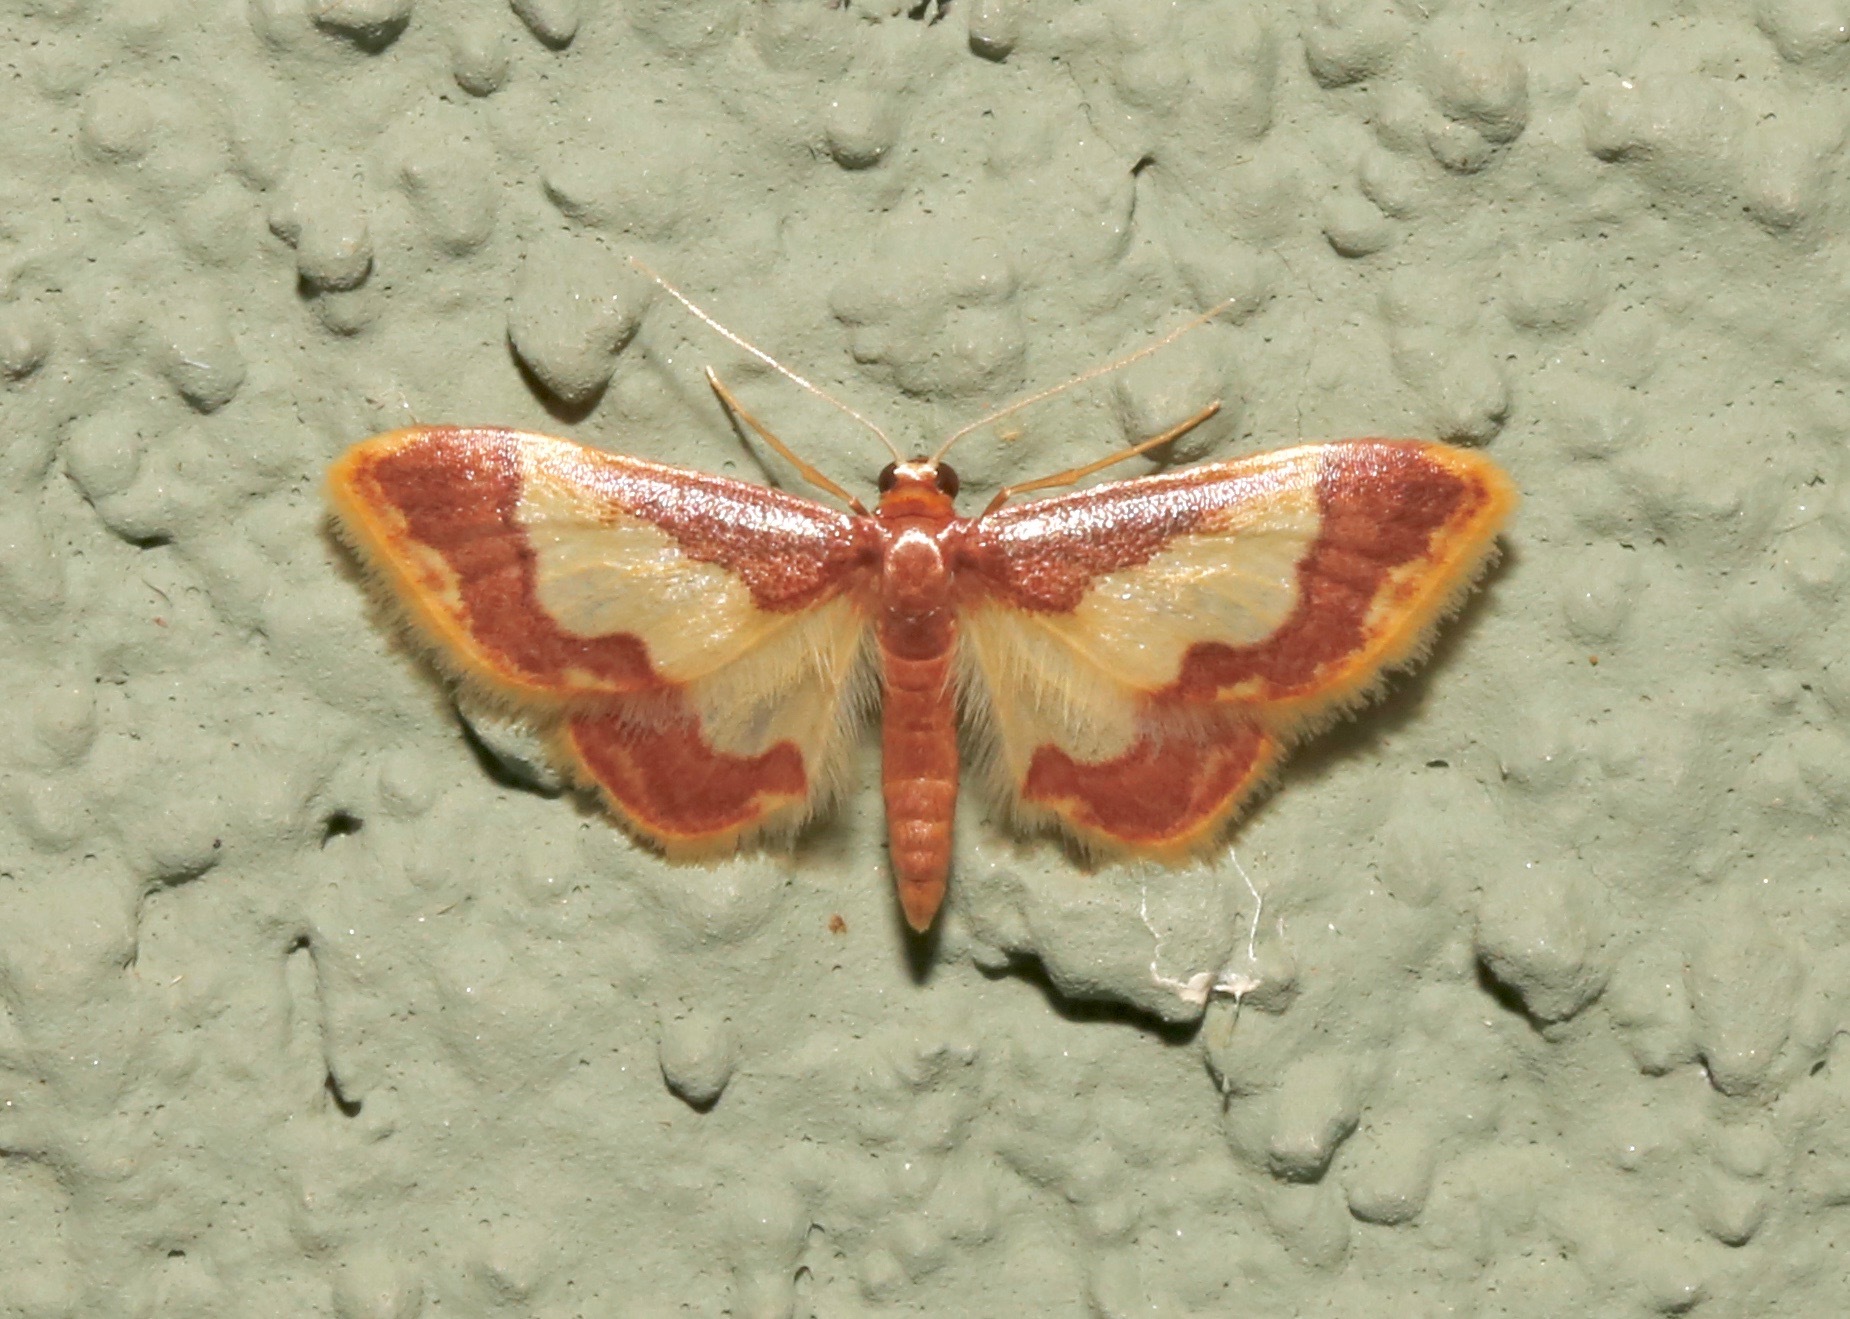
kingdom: Animalia
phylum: Arthropoda
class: Insecta
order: Lepidoptera
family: Geometridae
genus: Idaea
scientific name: Idaea basinta
